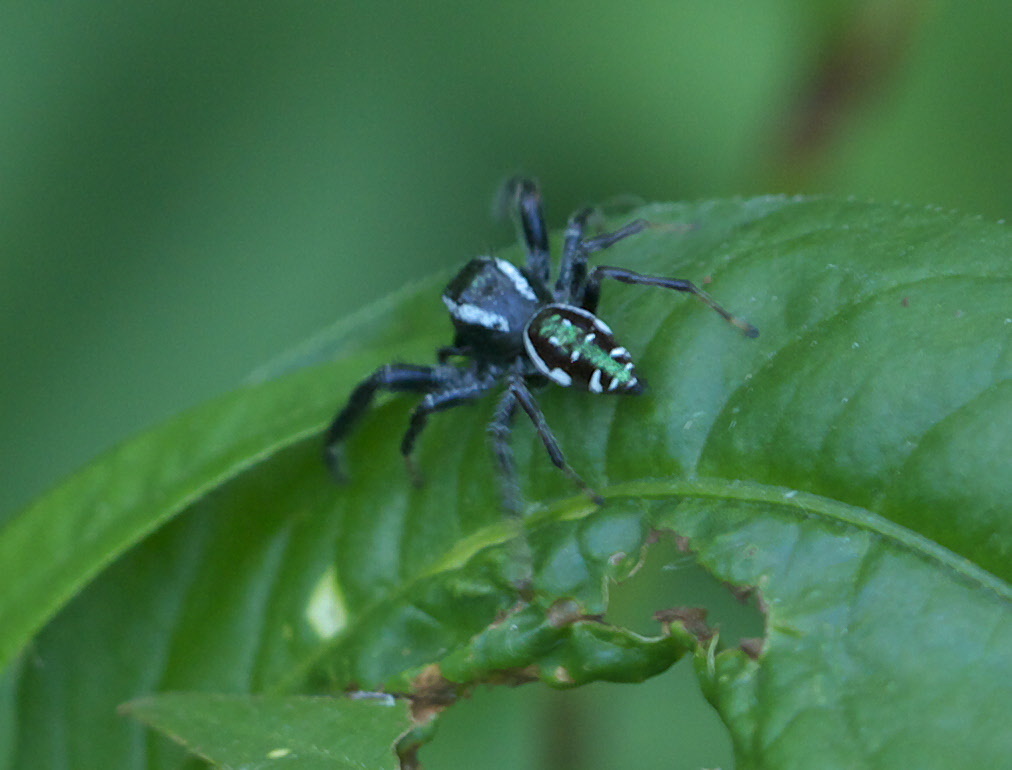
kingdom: Animalia
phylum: Arthropoda
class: Arachnida
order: Araneae
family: Salticidae
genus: Paraphidippus
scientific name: Paraphidippus aurantius
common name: Jumping spiders
